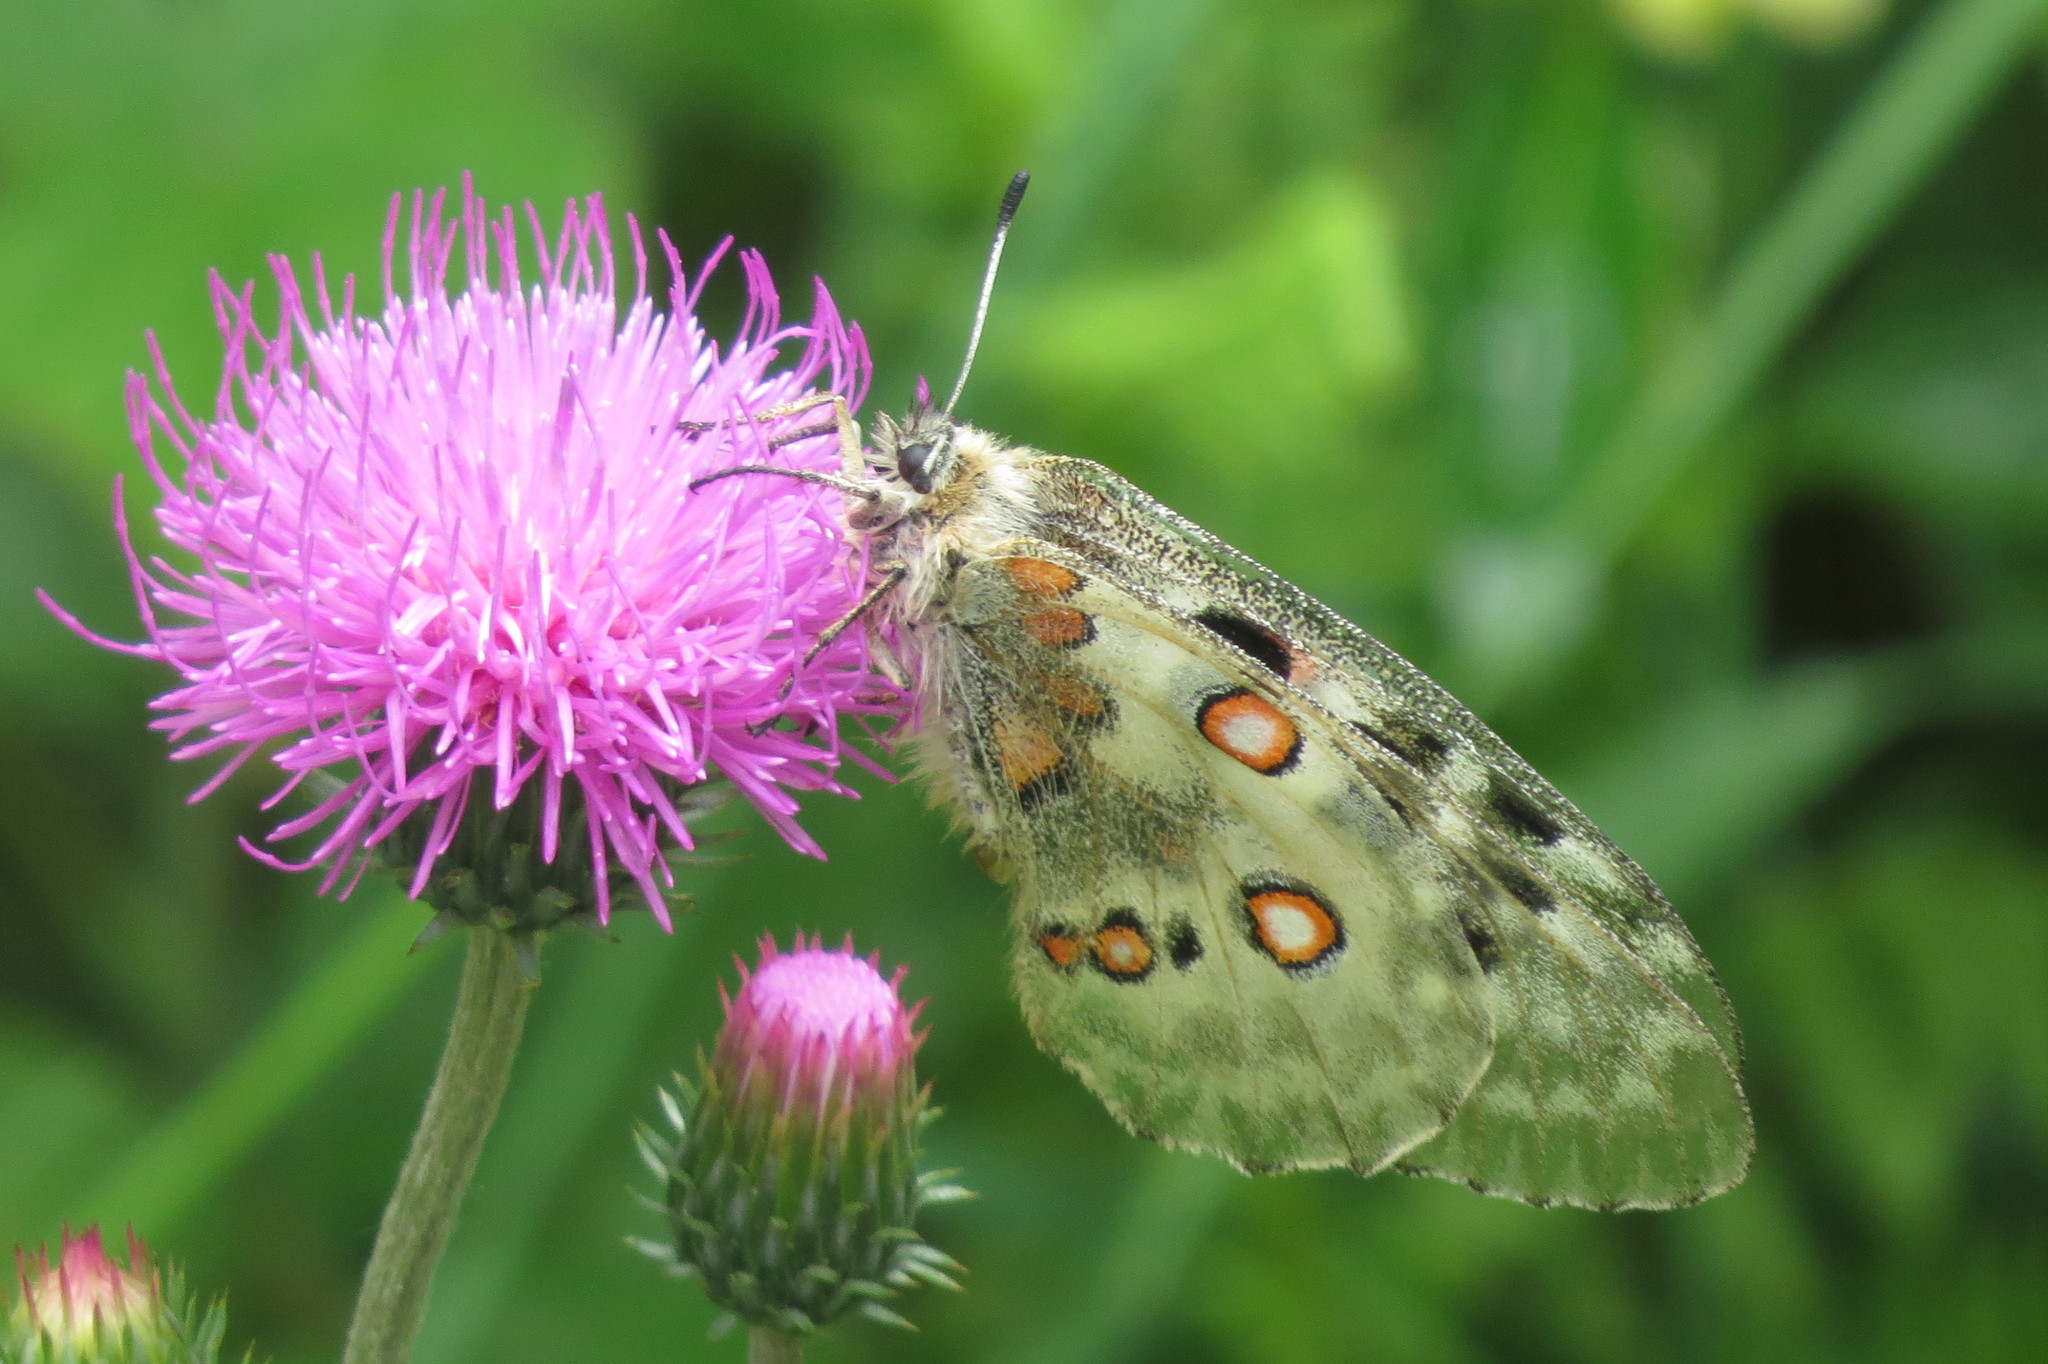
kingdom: Animalia
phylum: Arthropoda
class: Insecta
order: Lepidoptera
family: Papilionidae
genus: Parnassius
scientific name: Parnassius apollo
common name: Apollo
